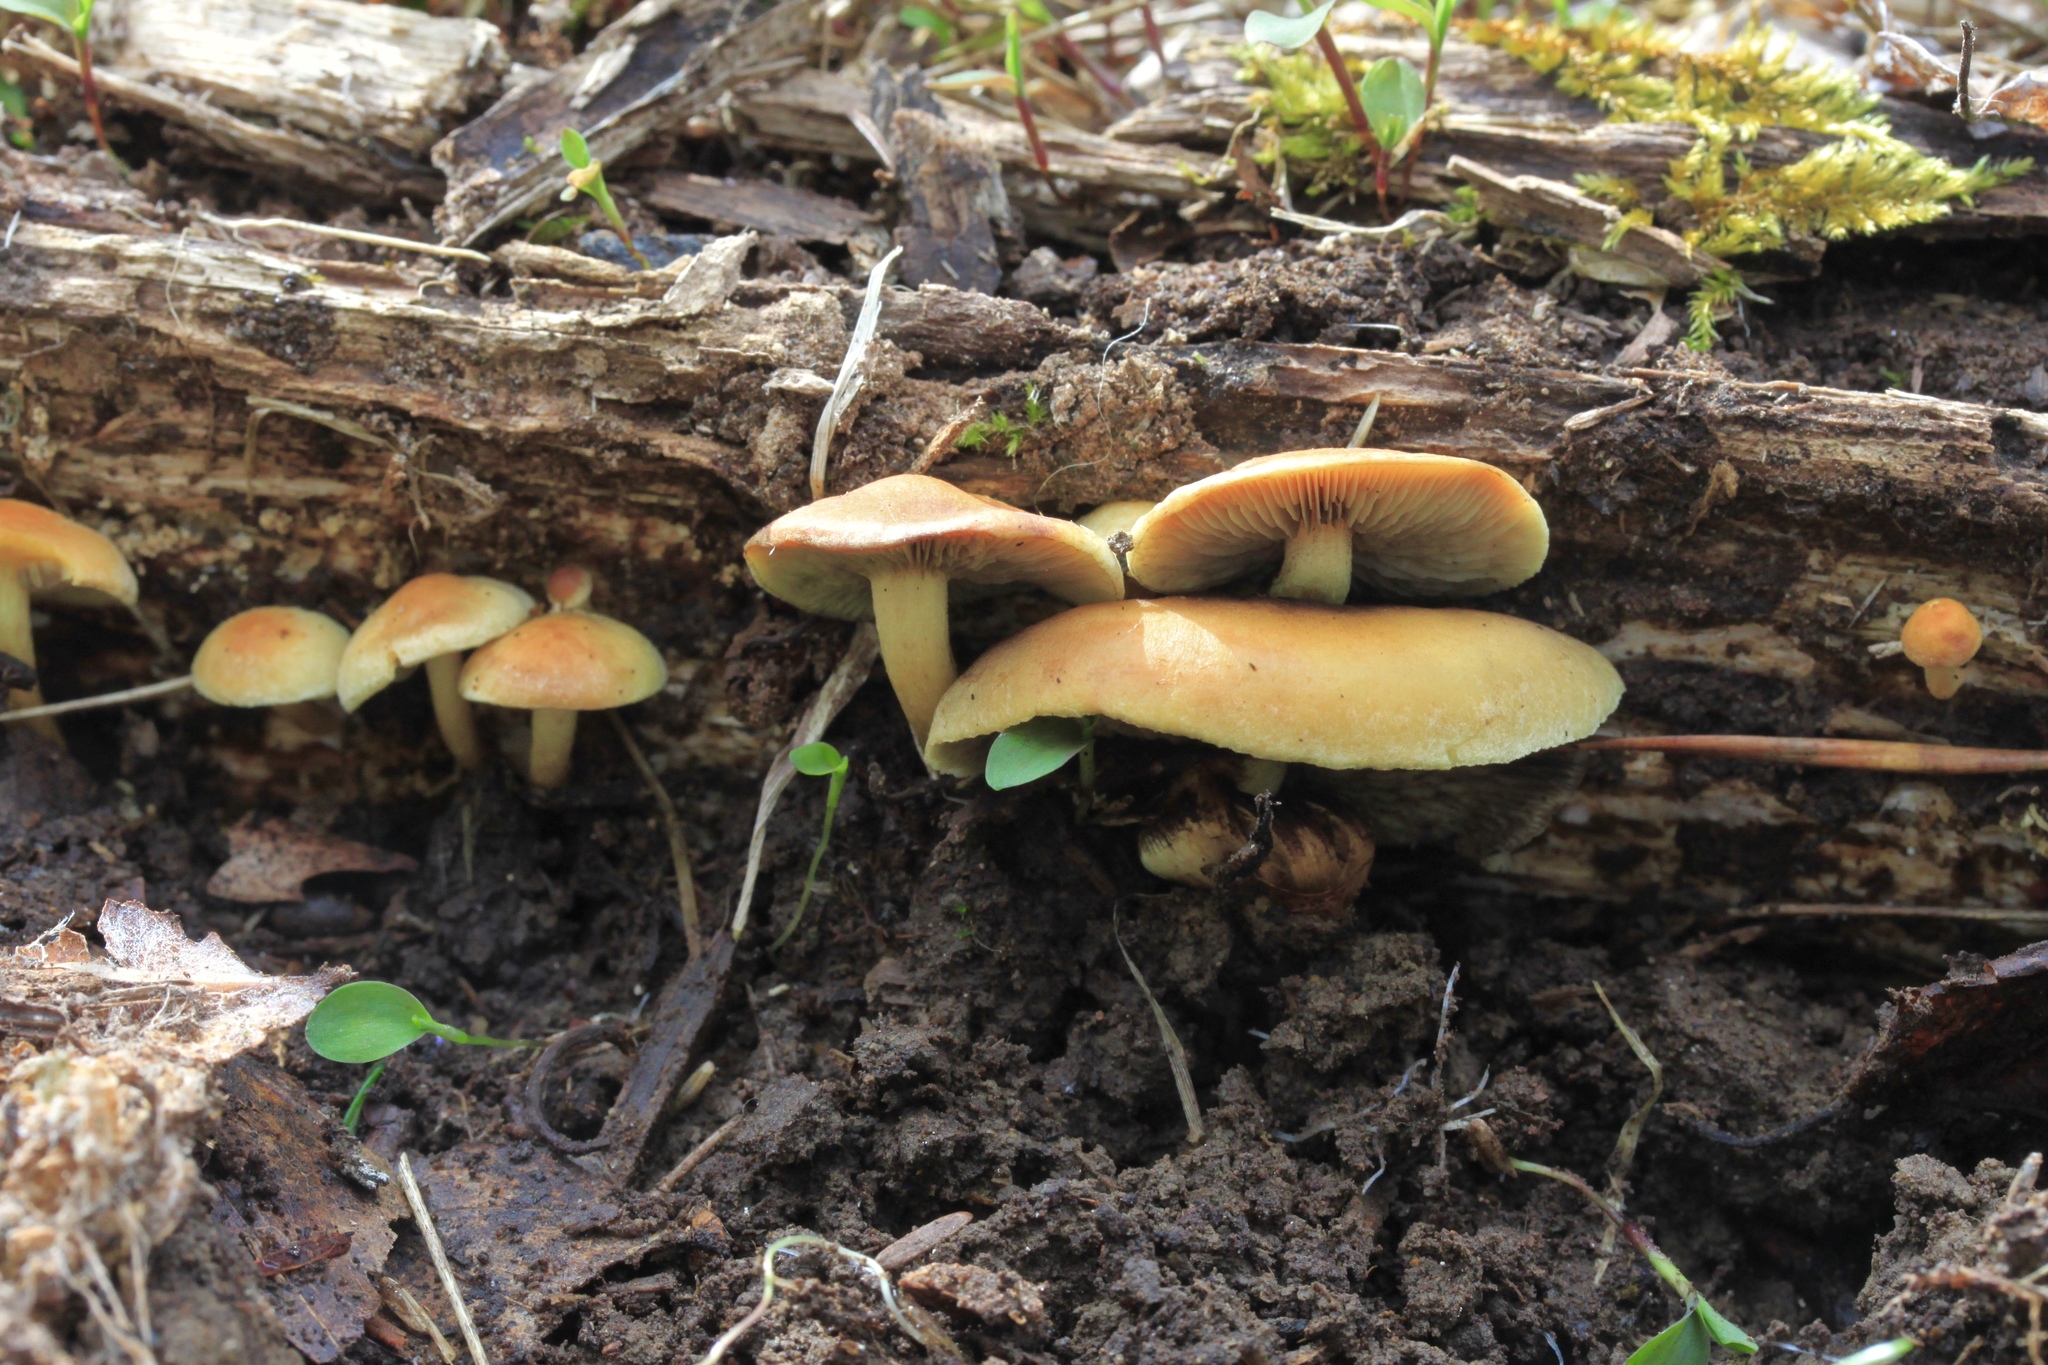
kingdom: Fungi
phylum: Basidiomycota
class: Agaricomycetes
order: Agaricales
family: Strophariaceae
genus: Hypholoma
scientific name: Hypholoma fasciculare
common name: Sulphur tuft
